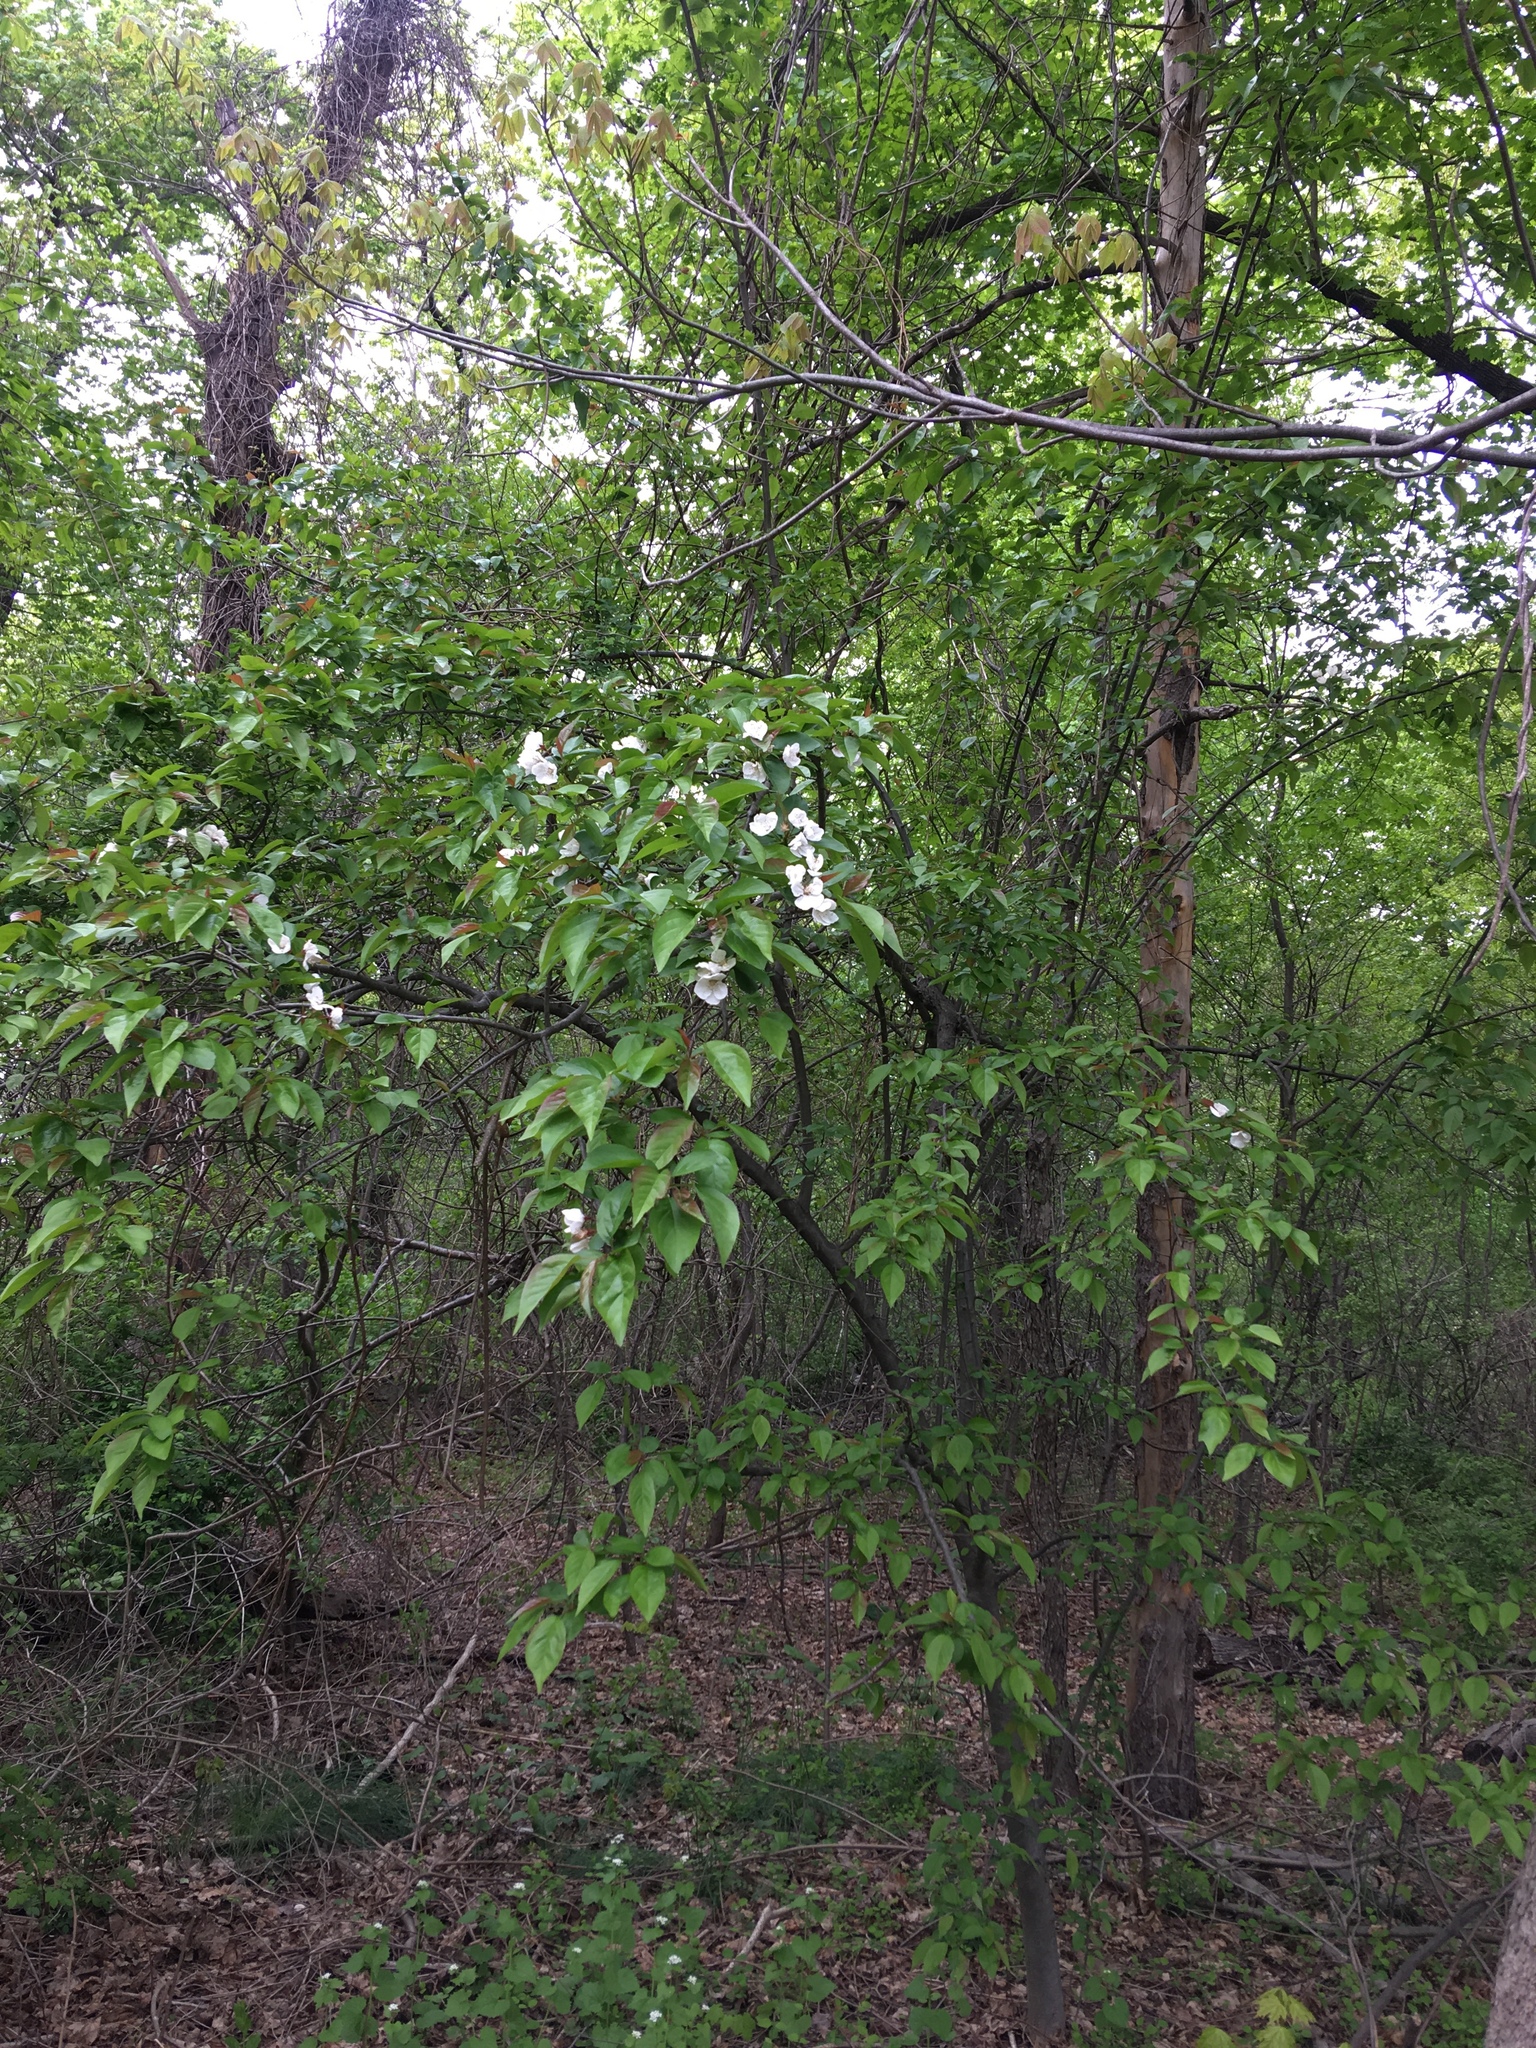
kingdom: Plantae
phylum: Tracheophyta
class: Magnoliopsida
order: Rosales
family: Rosaceae
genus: Malus
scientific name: Malus hupehensis
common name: Chinese crab apple
